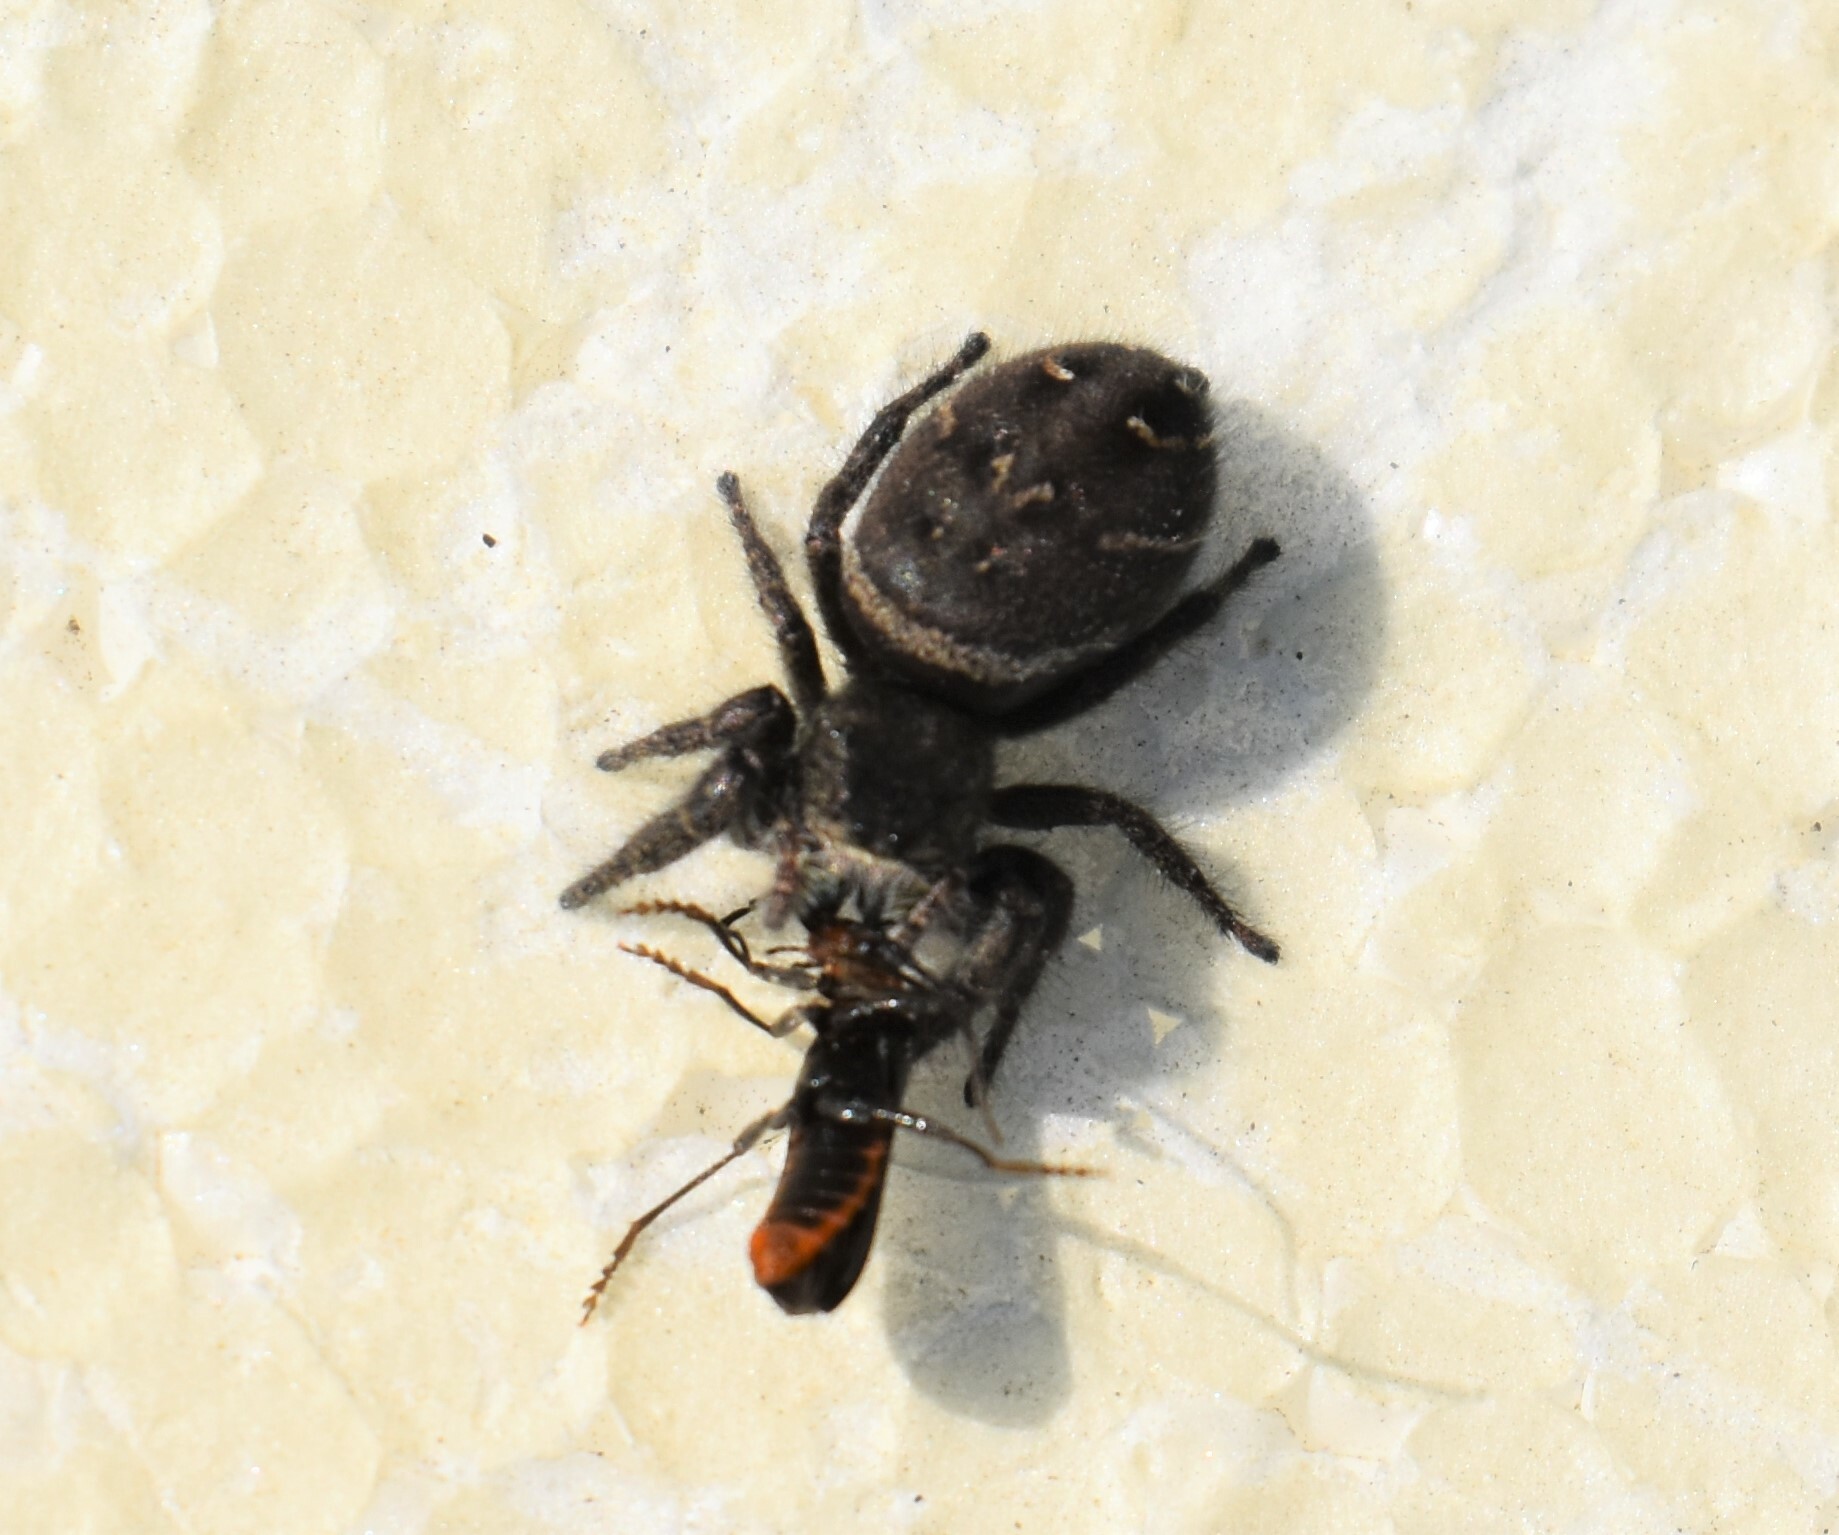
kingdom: Animalia
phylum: Arthropoda
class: Arachnida
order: Araneae
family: Salticidae
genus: Phidippus
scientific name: Phidippus cryptus
